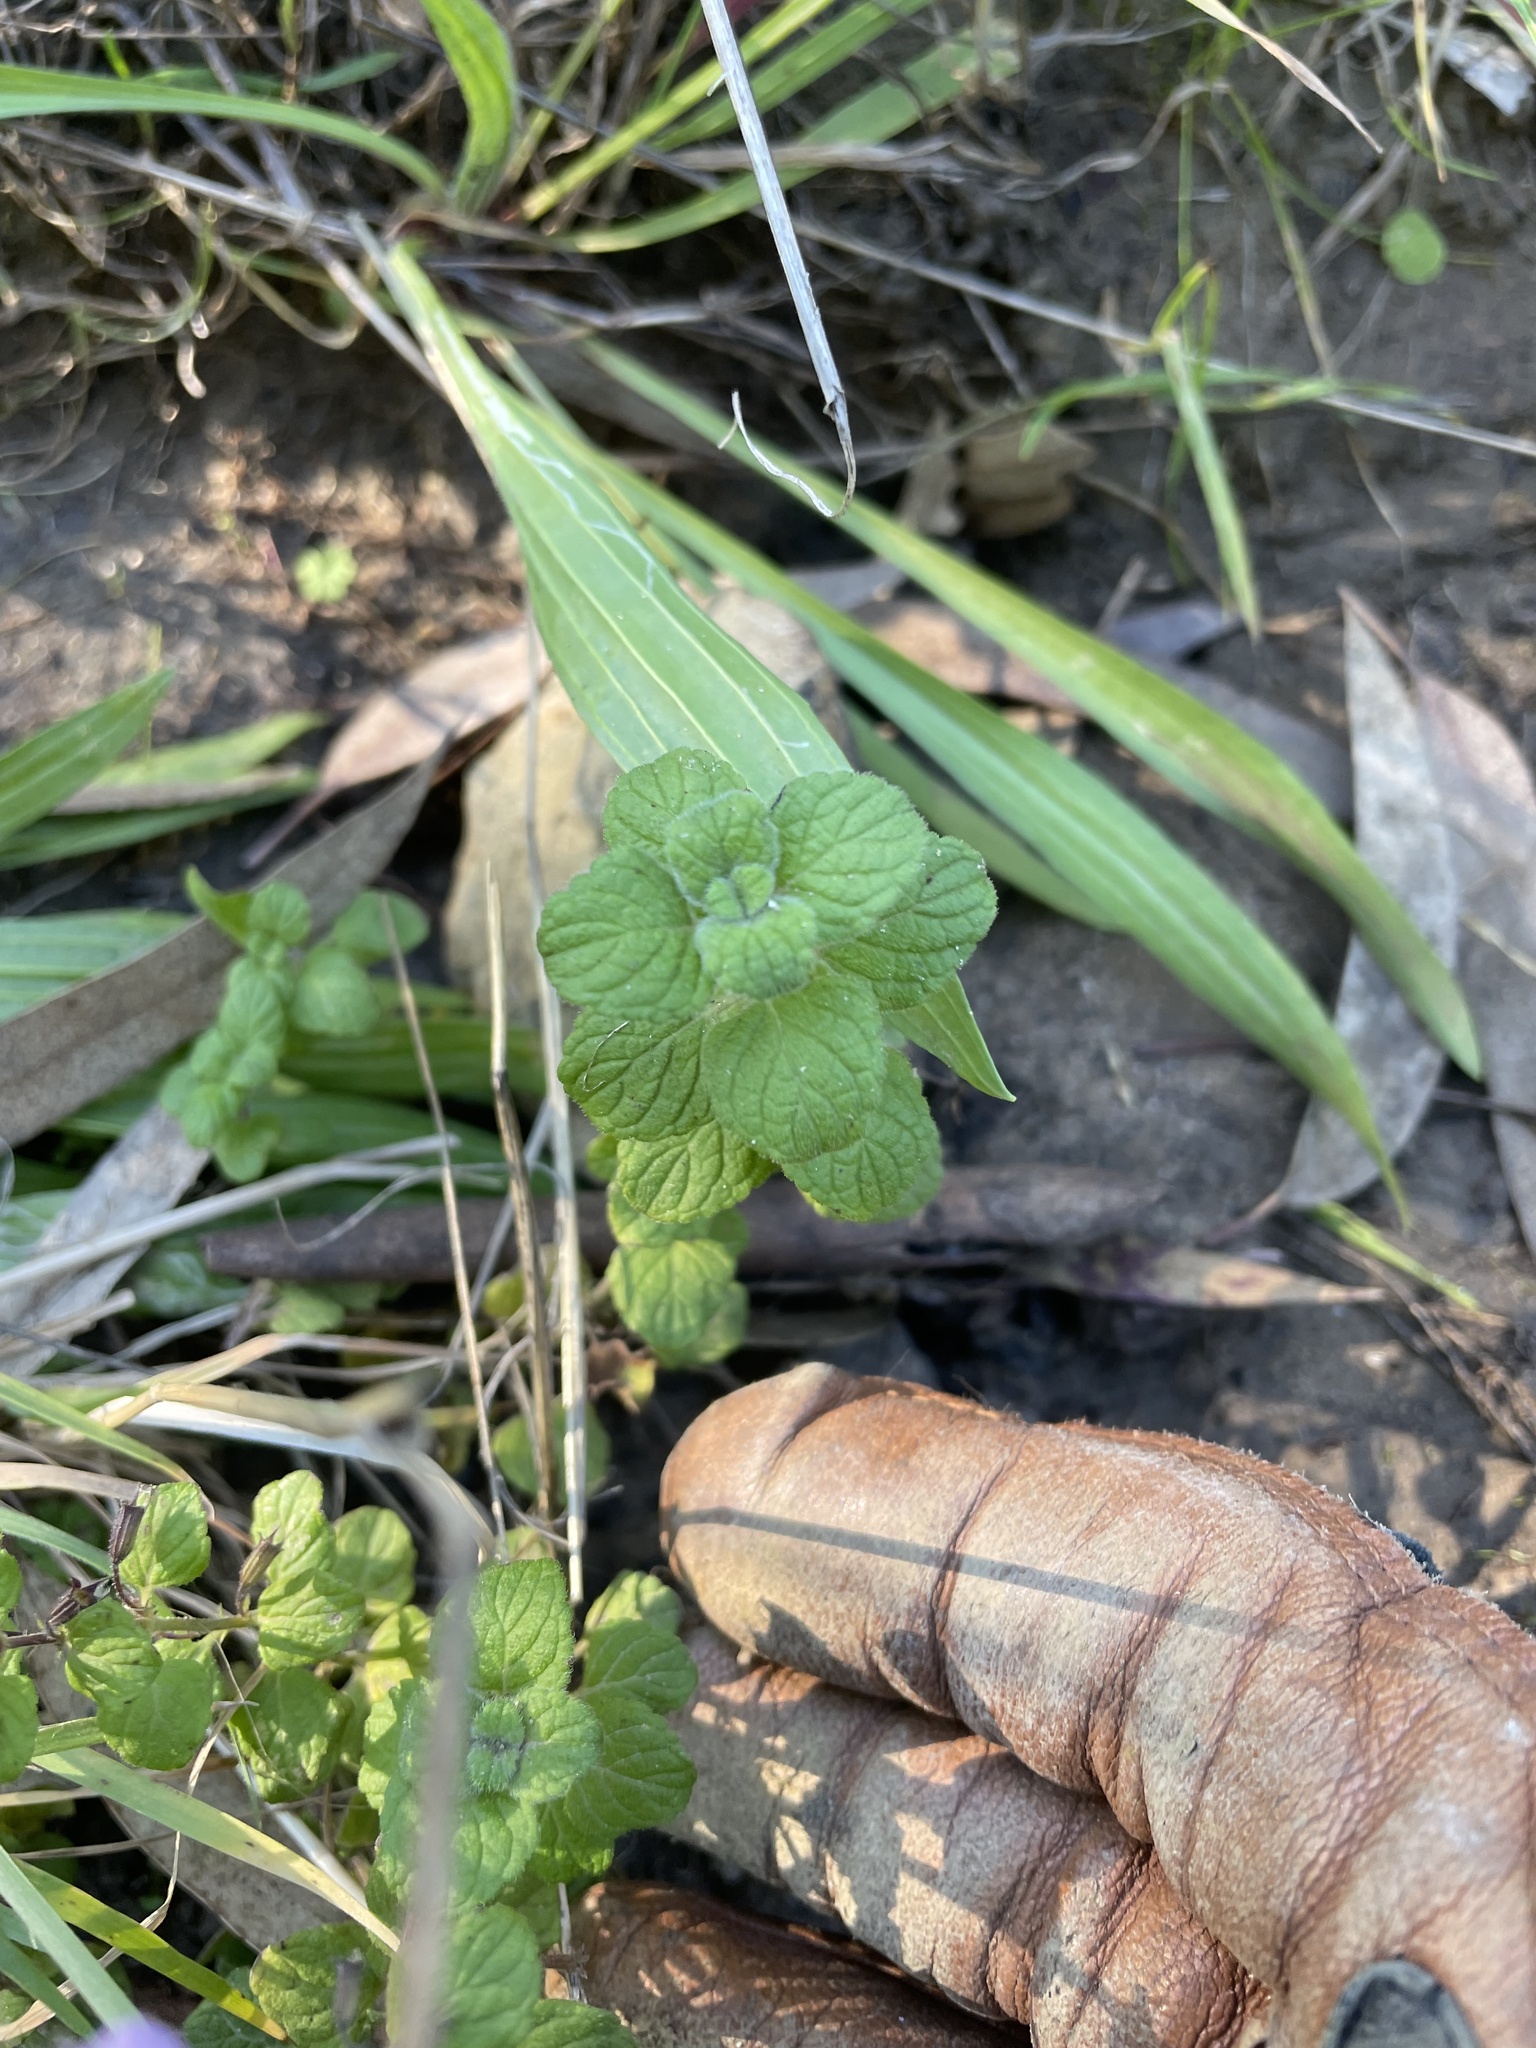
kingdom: Plantae
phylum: Tracheophyta
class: Magnoliopsida
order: Lamiales
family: Lamiaceae
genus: Clinopodium
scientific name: Clinopodium menthifolium
